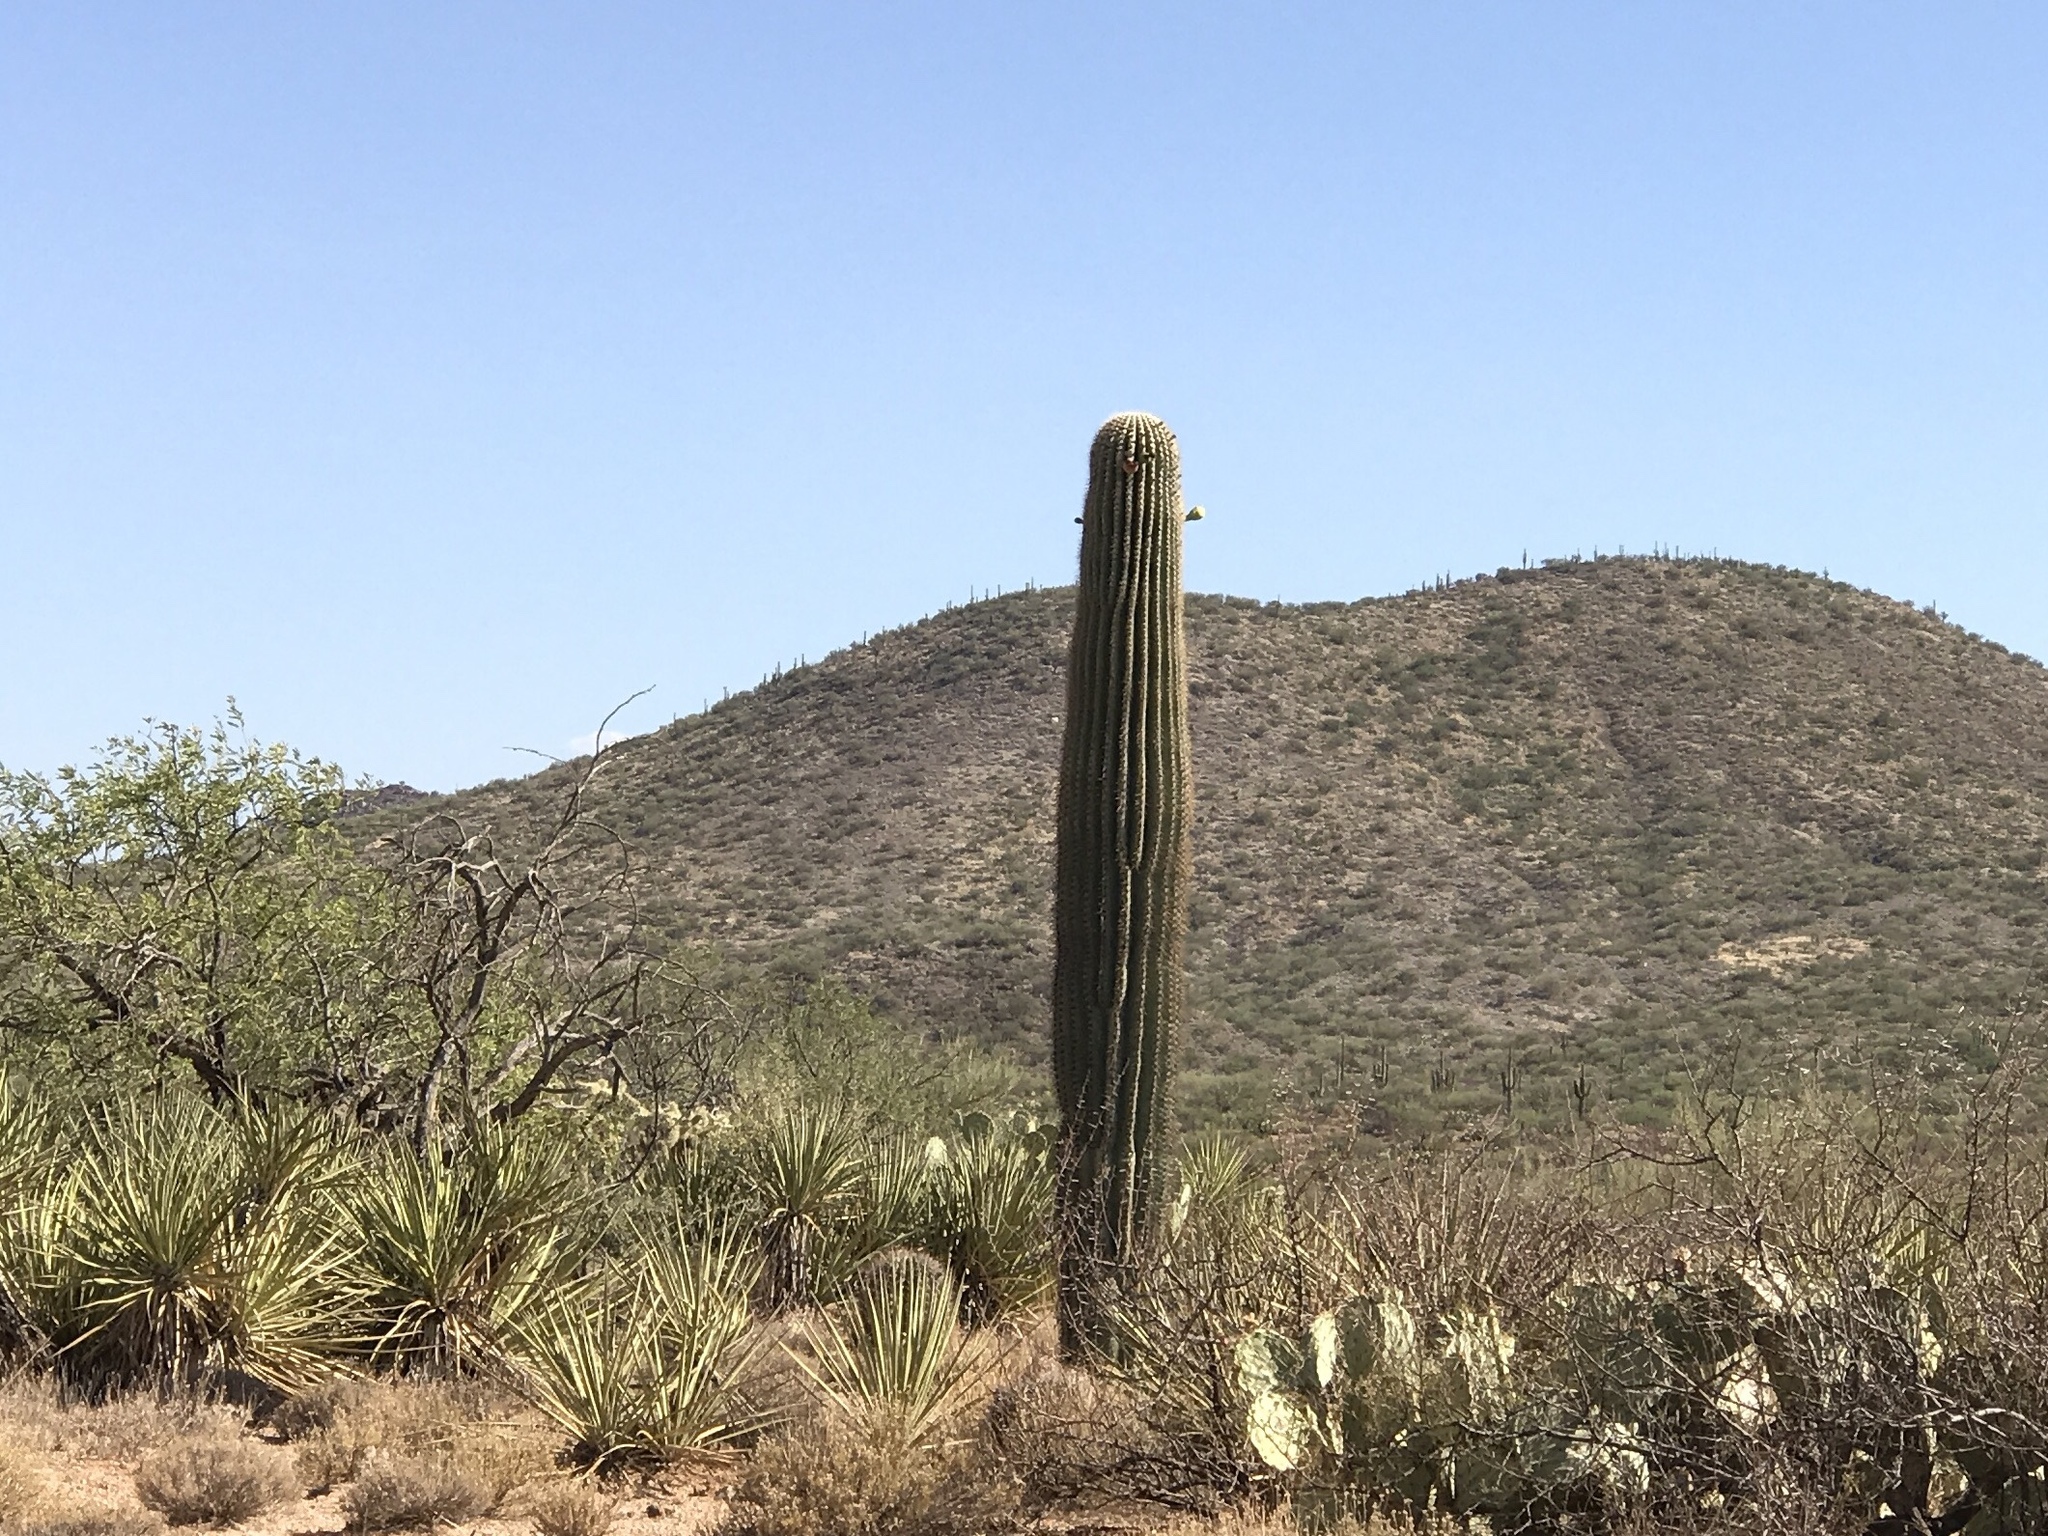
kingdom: Plantae
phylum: Tracheophyta
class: Magnoliopsida
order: Caryophyllales
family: Cactaceae
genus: Carnegiea
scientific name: Carnegiea gigantea
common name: Saguaro
